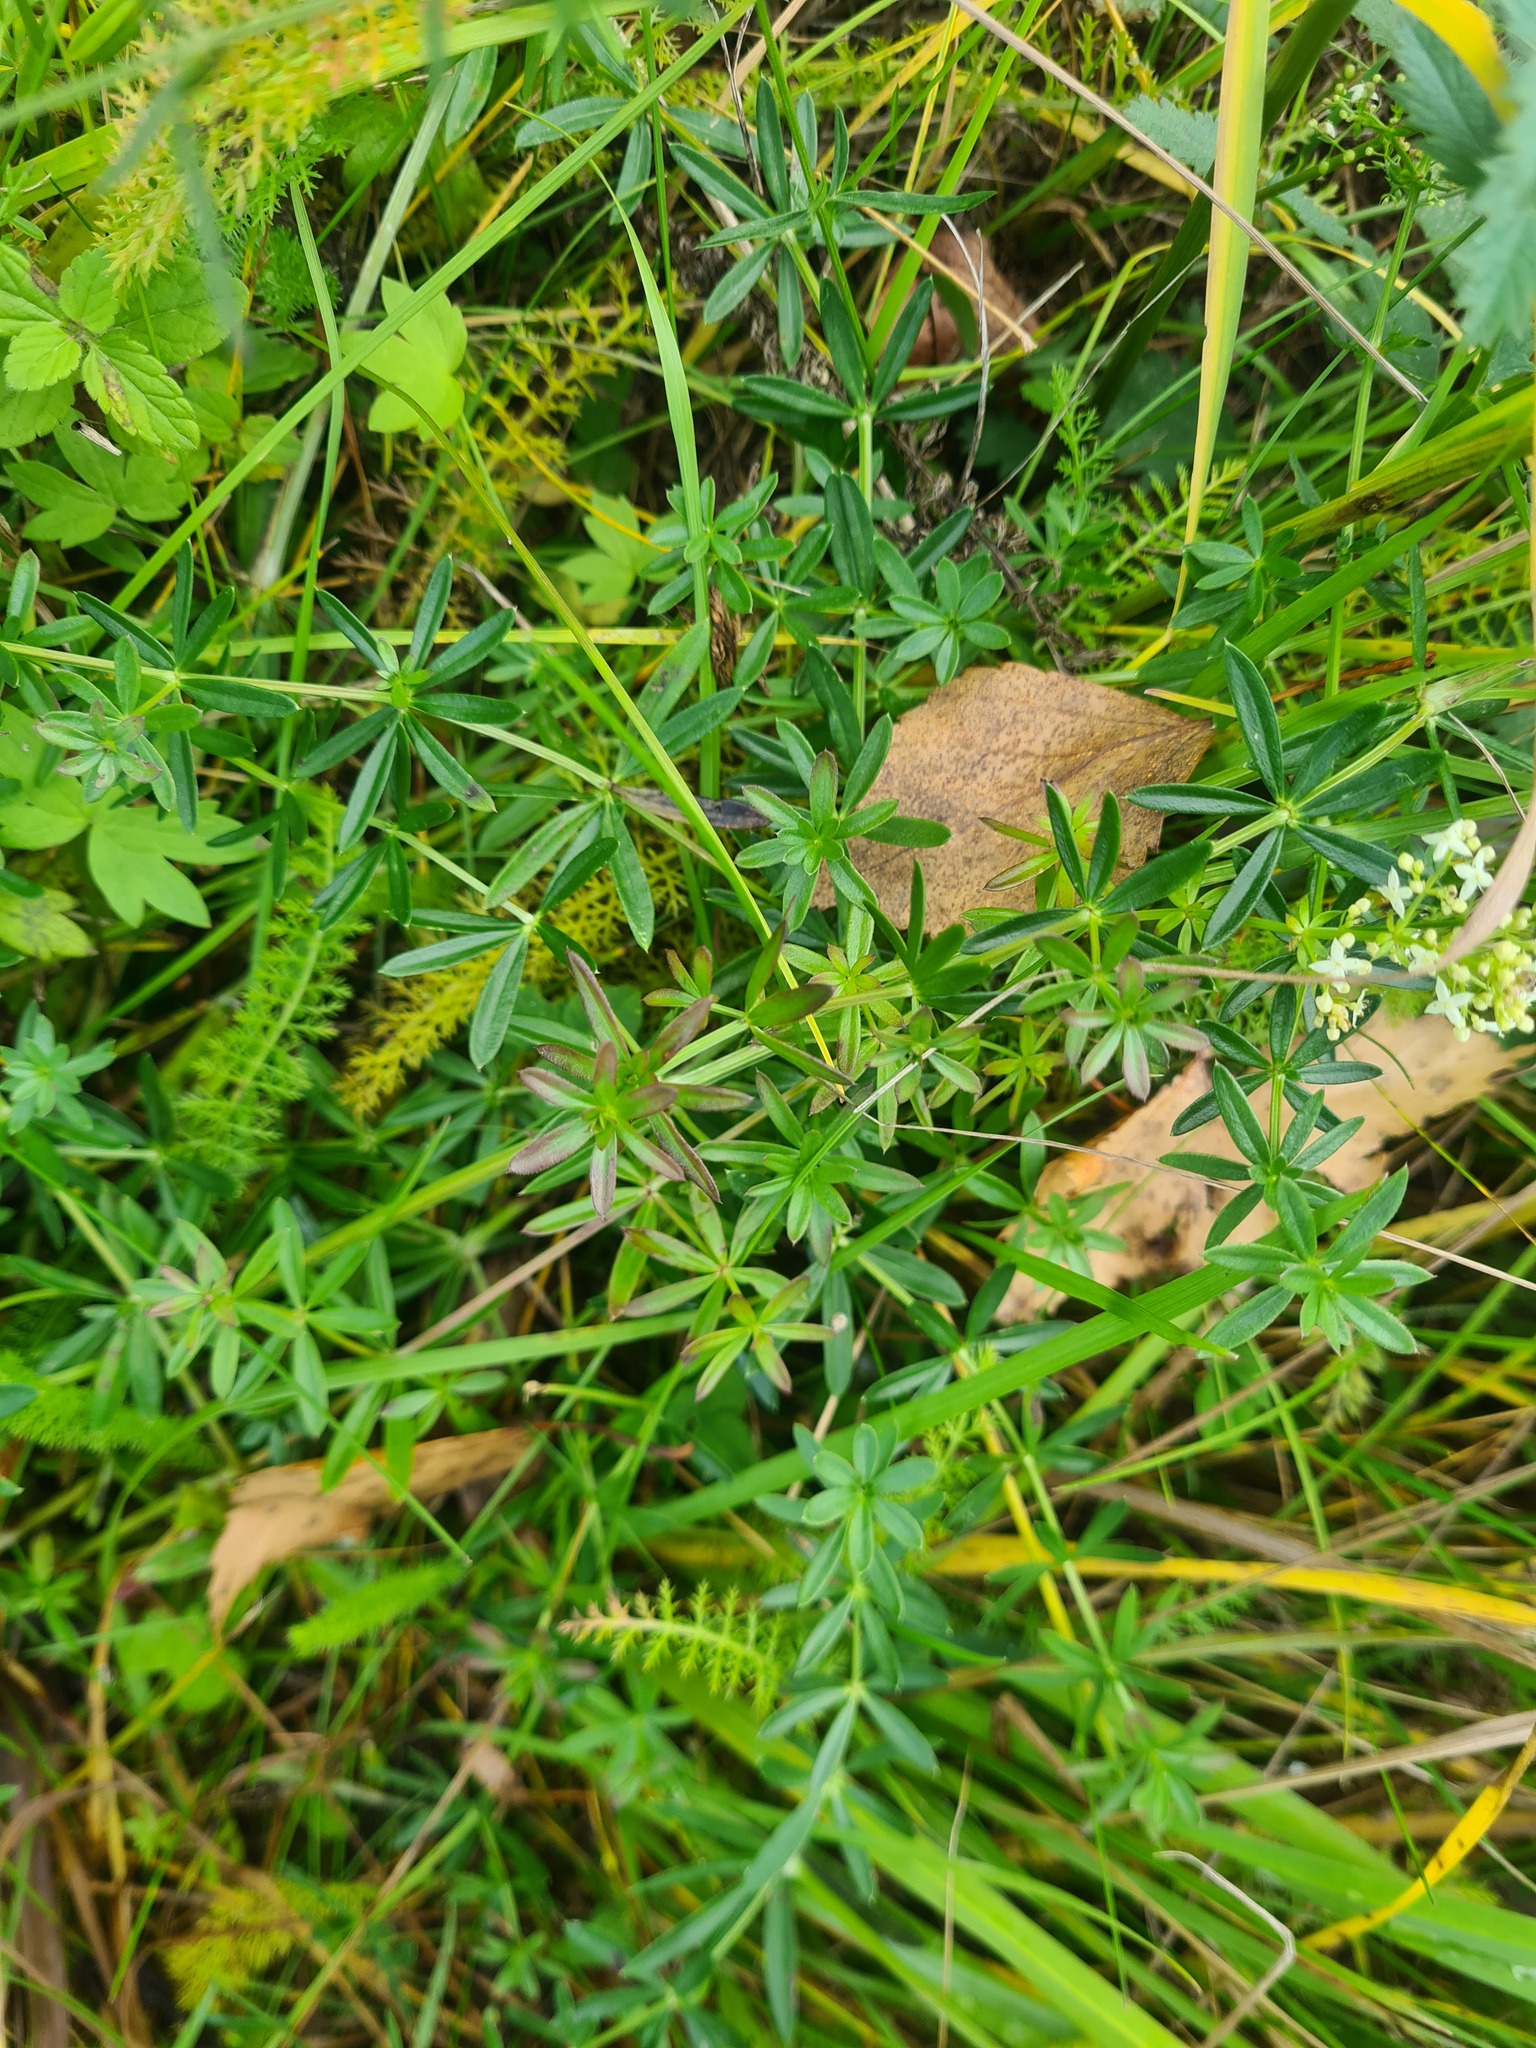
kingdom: Plantae
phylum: Tracheophyta
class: Magnoliopsida
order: Gentianales
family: Rubiaceae
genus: Galium
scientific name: Galium mollugo
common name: Hedge bedstraw
